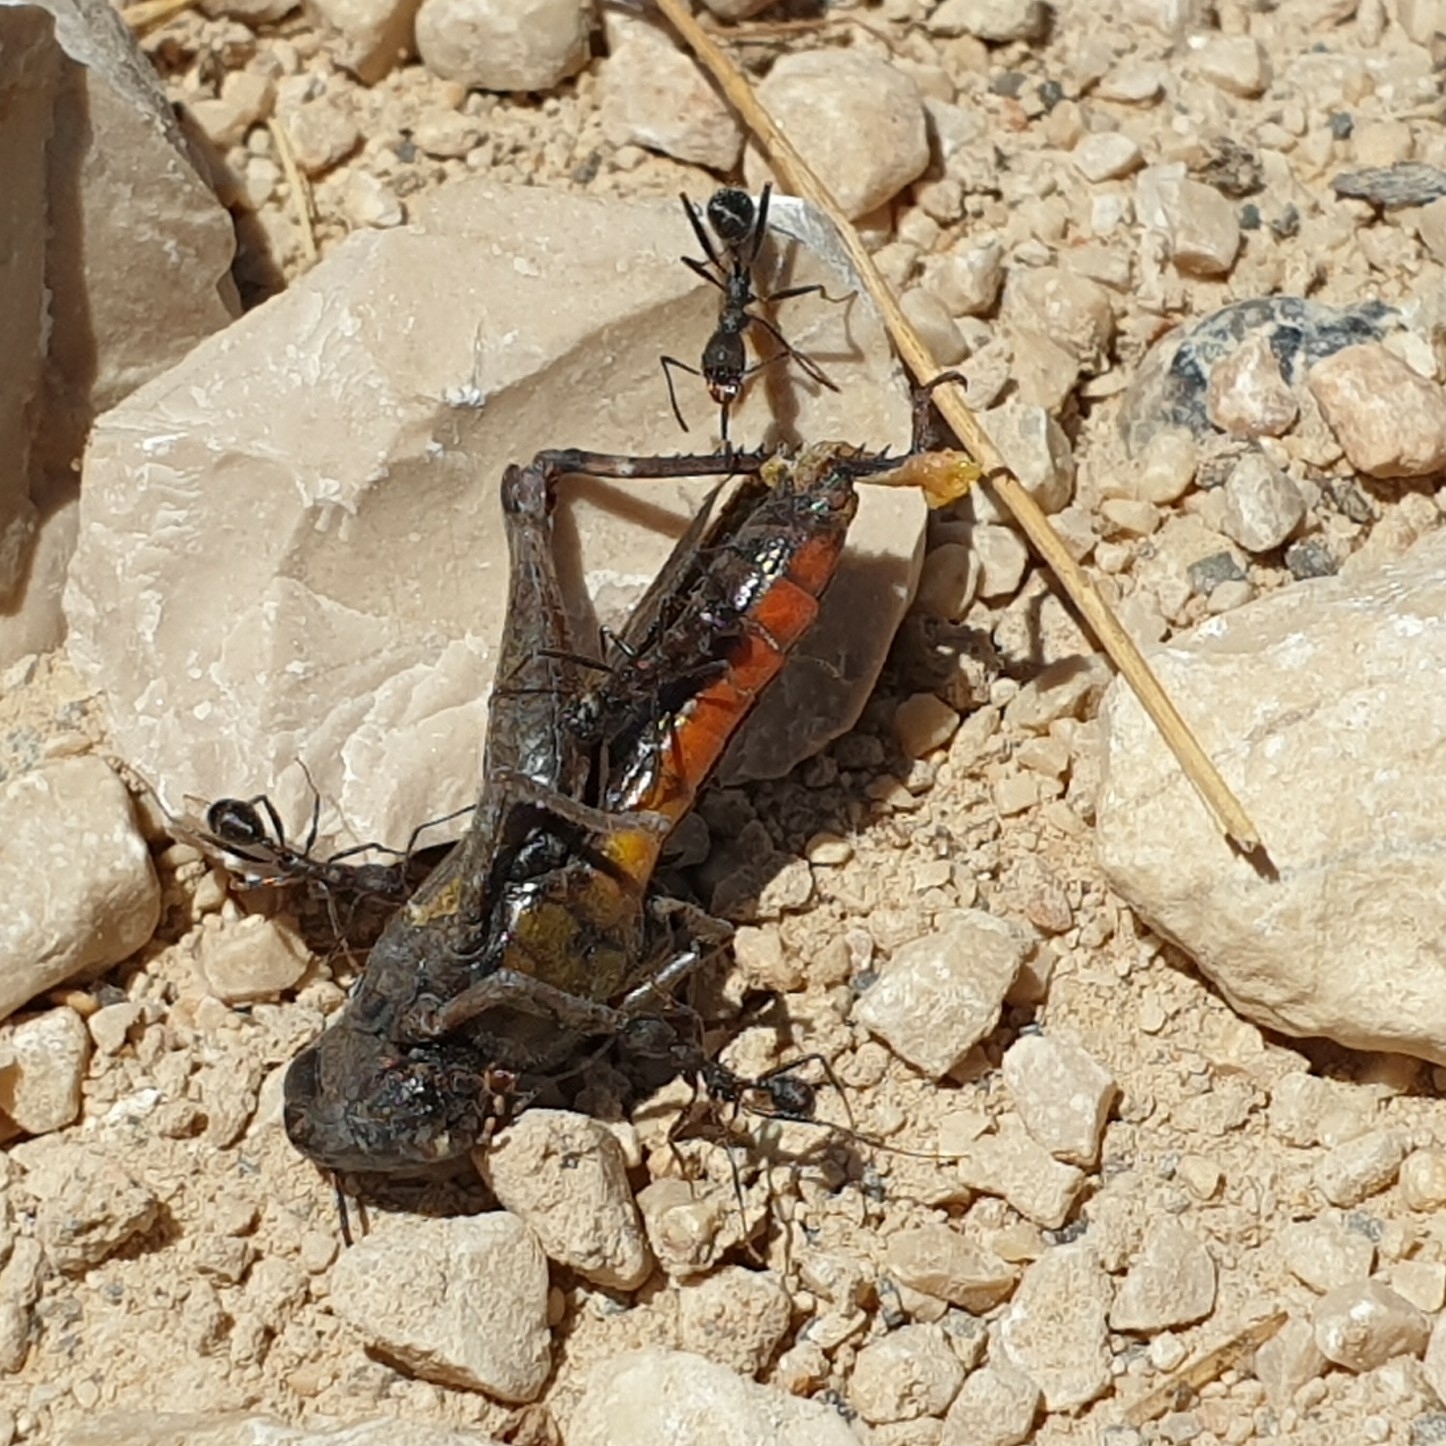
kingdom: Animalia
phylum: Arthropoda
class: Insecta
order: Orthoptera
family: Acrididae
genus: Omocestus
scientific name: Omocestus rufipes
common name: Woodland grasshopper
